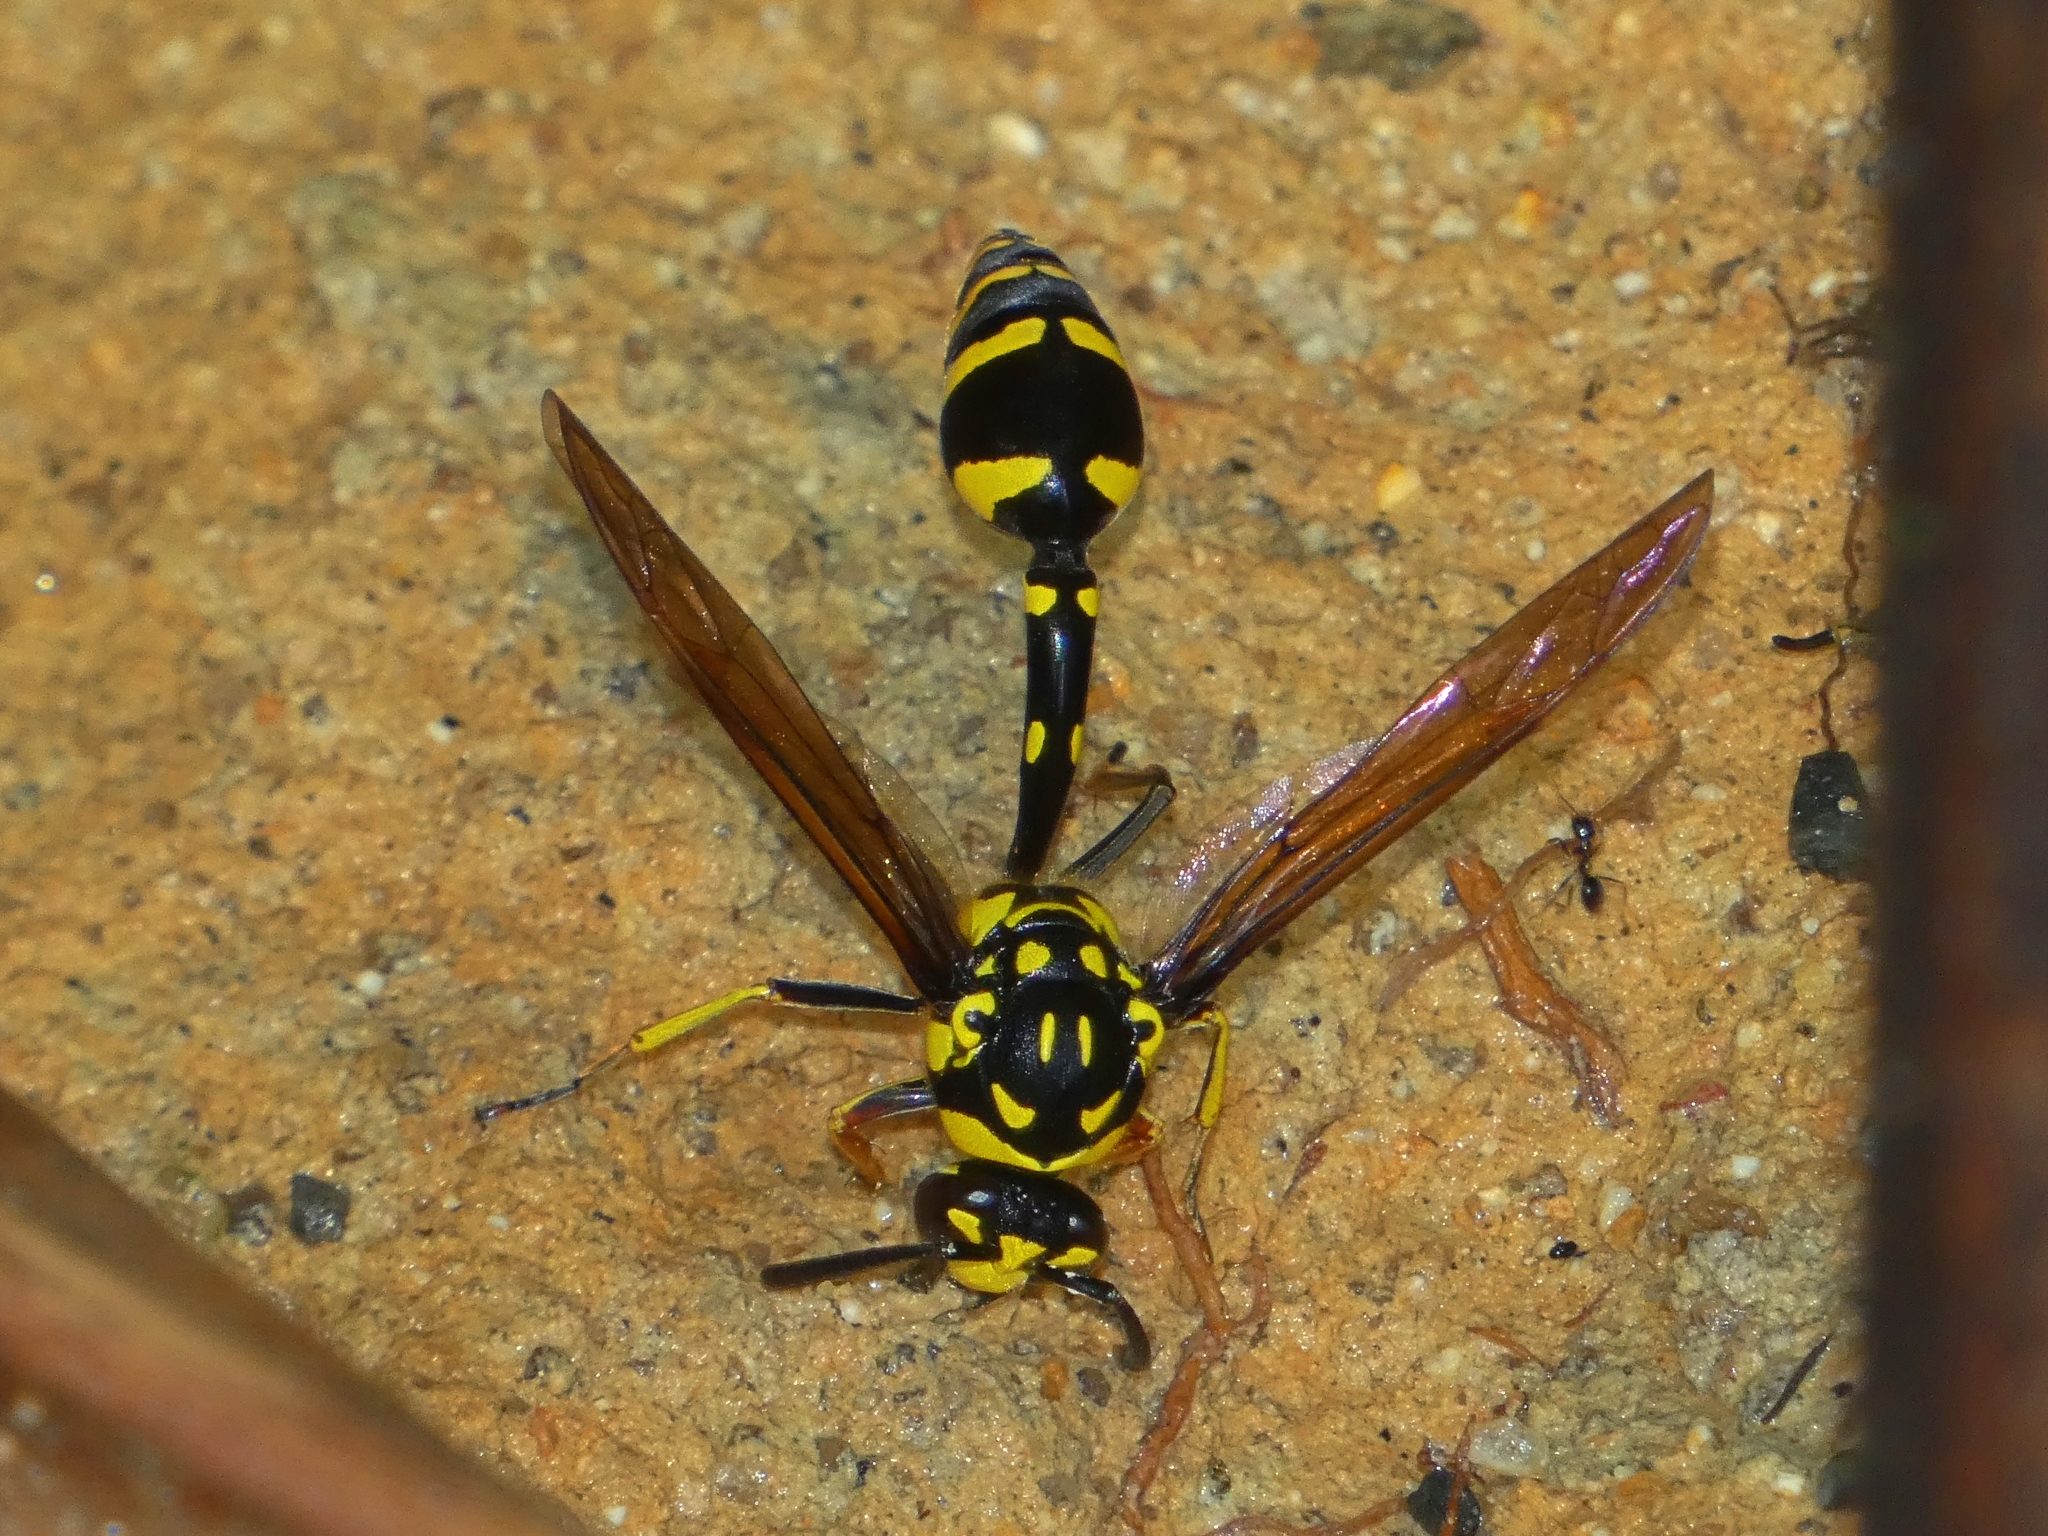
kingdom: Animalia
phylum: Arthropoda
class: Insecta
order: Hymenoptera
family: Eumenidae
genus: Phimenes
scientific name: Phimenes arcuatus
